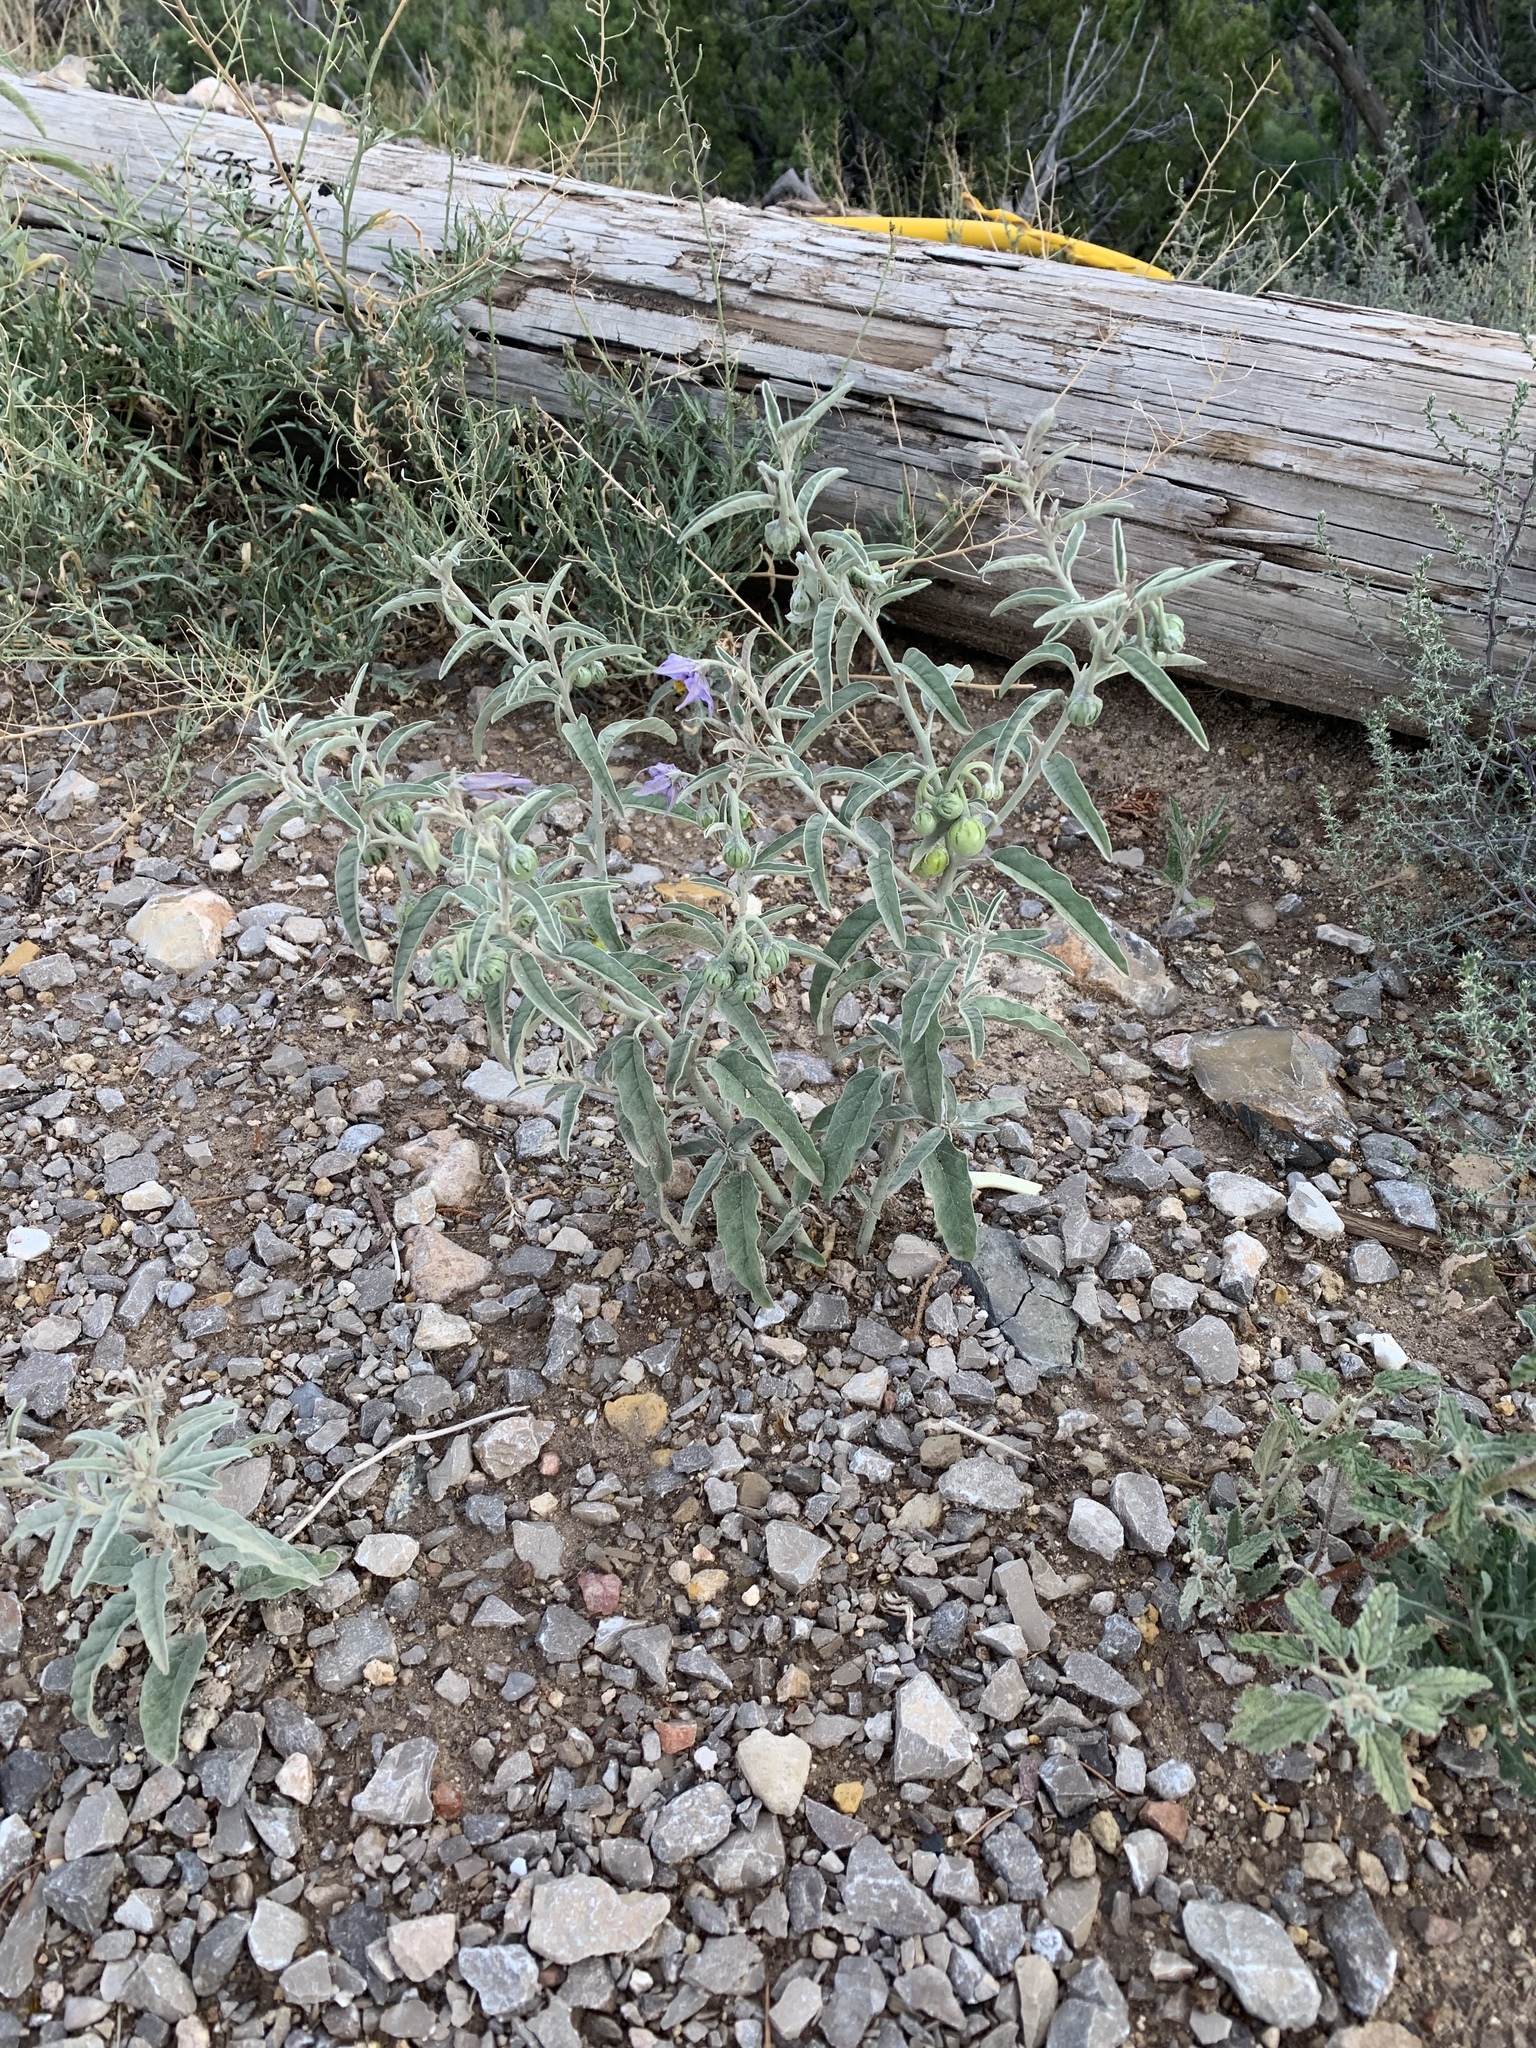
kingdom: Plantae
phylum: Tracheophyta
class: Magnoliopsida
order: Solanales
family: Solanaceae
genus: Solanum
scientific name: Solanum elaeagnifolium
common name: Silverleaf nightshade
